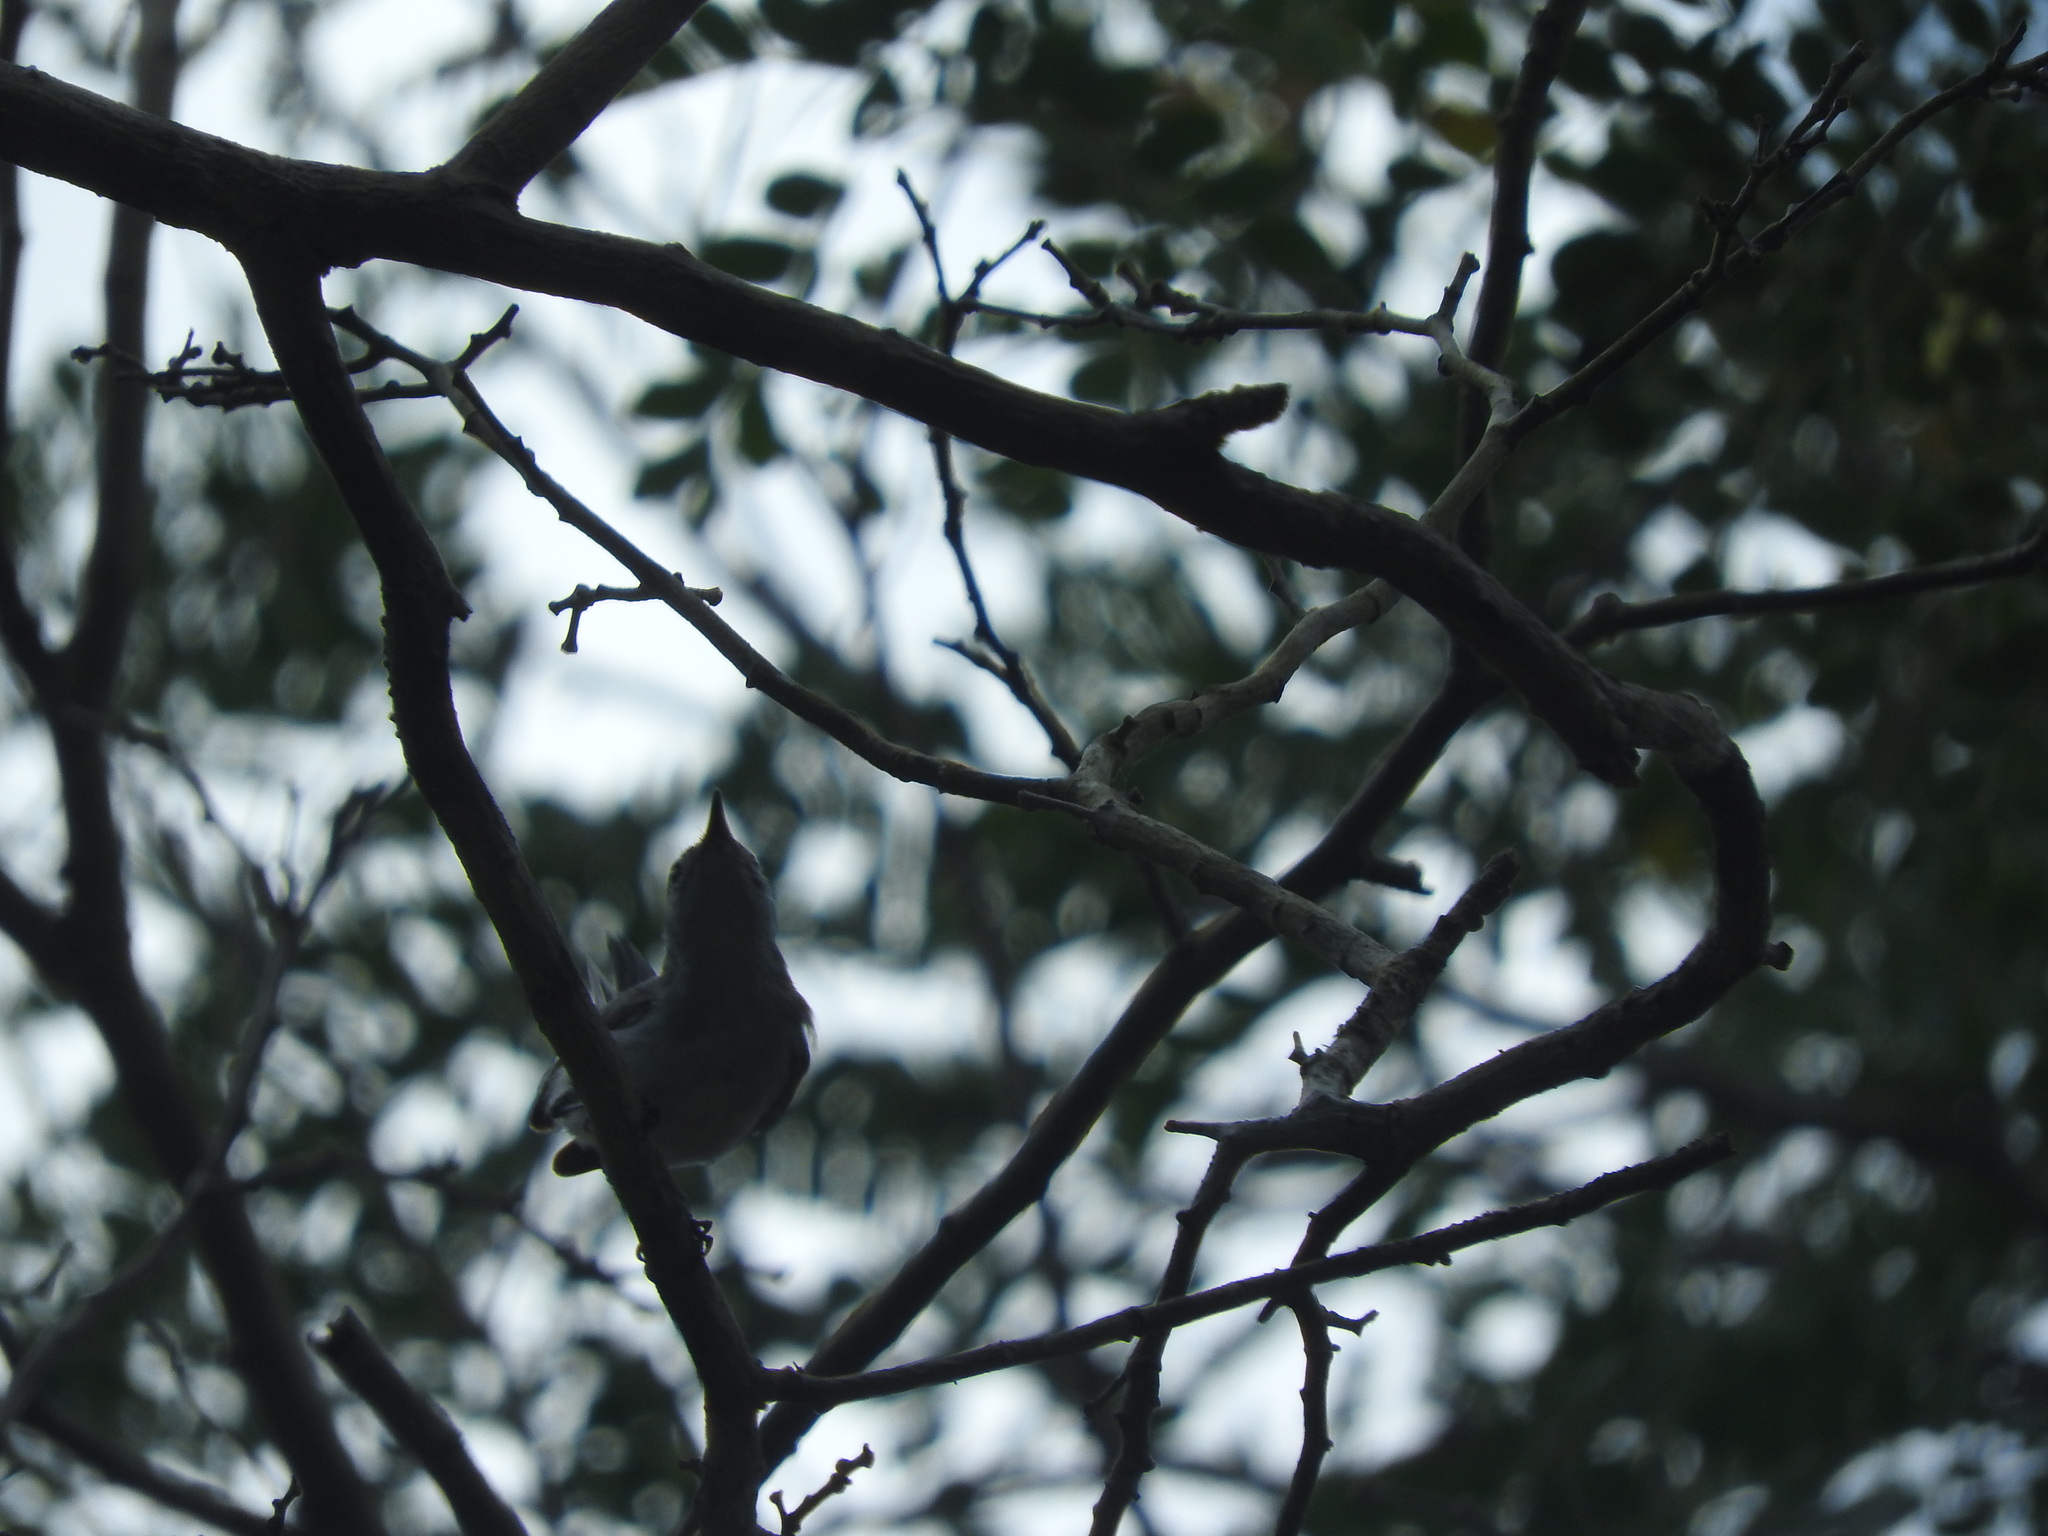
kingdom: Animalia
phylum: Chordata
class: Aves
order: Passeriformes
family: Polioptilidae
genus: Polioptila
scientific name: Polioptila caerulea
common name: Blue-gray gnatcatcher
